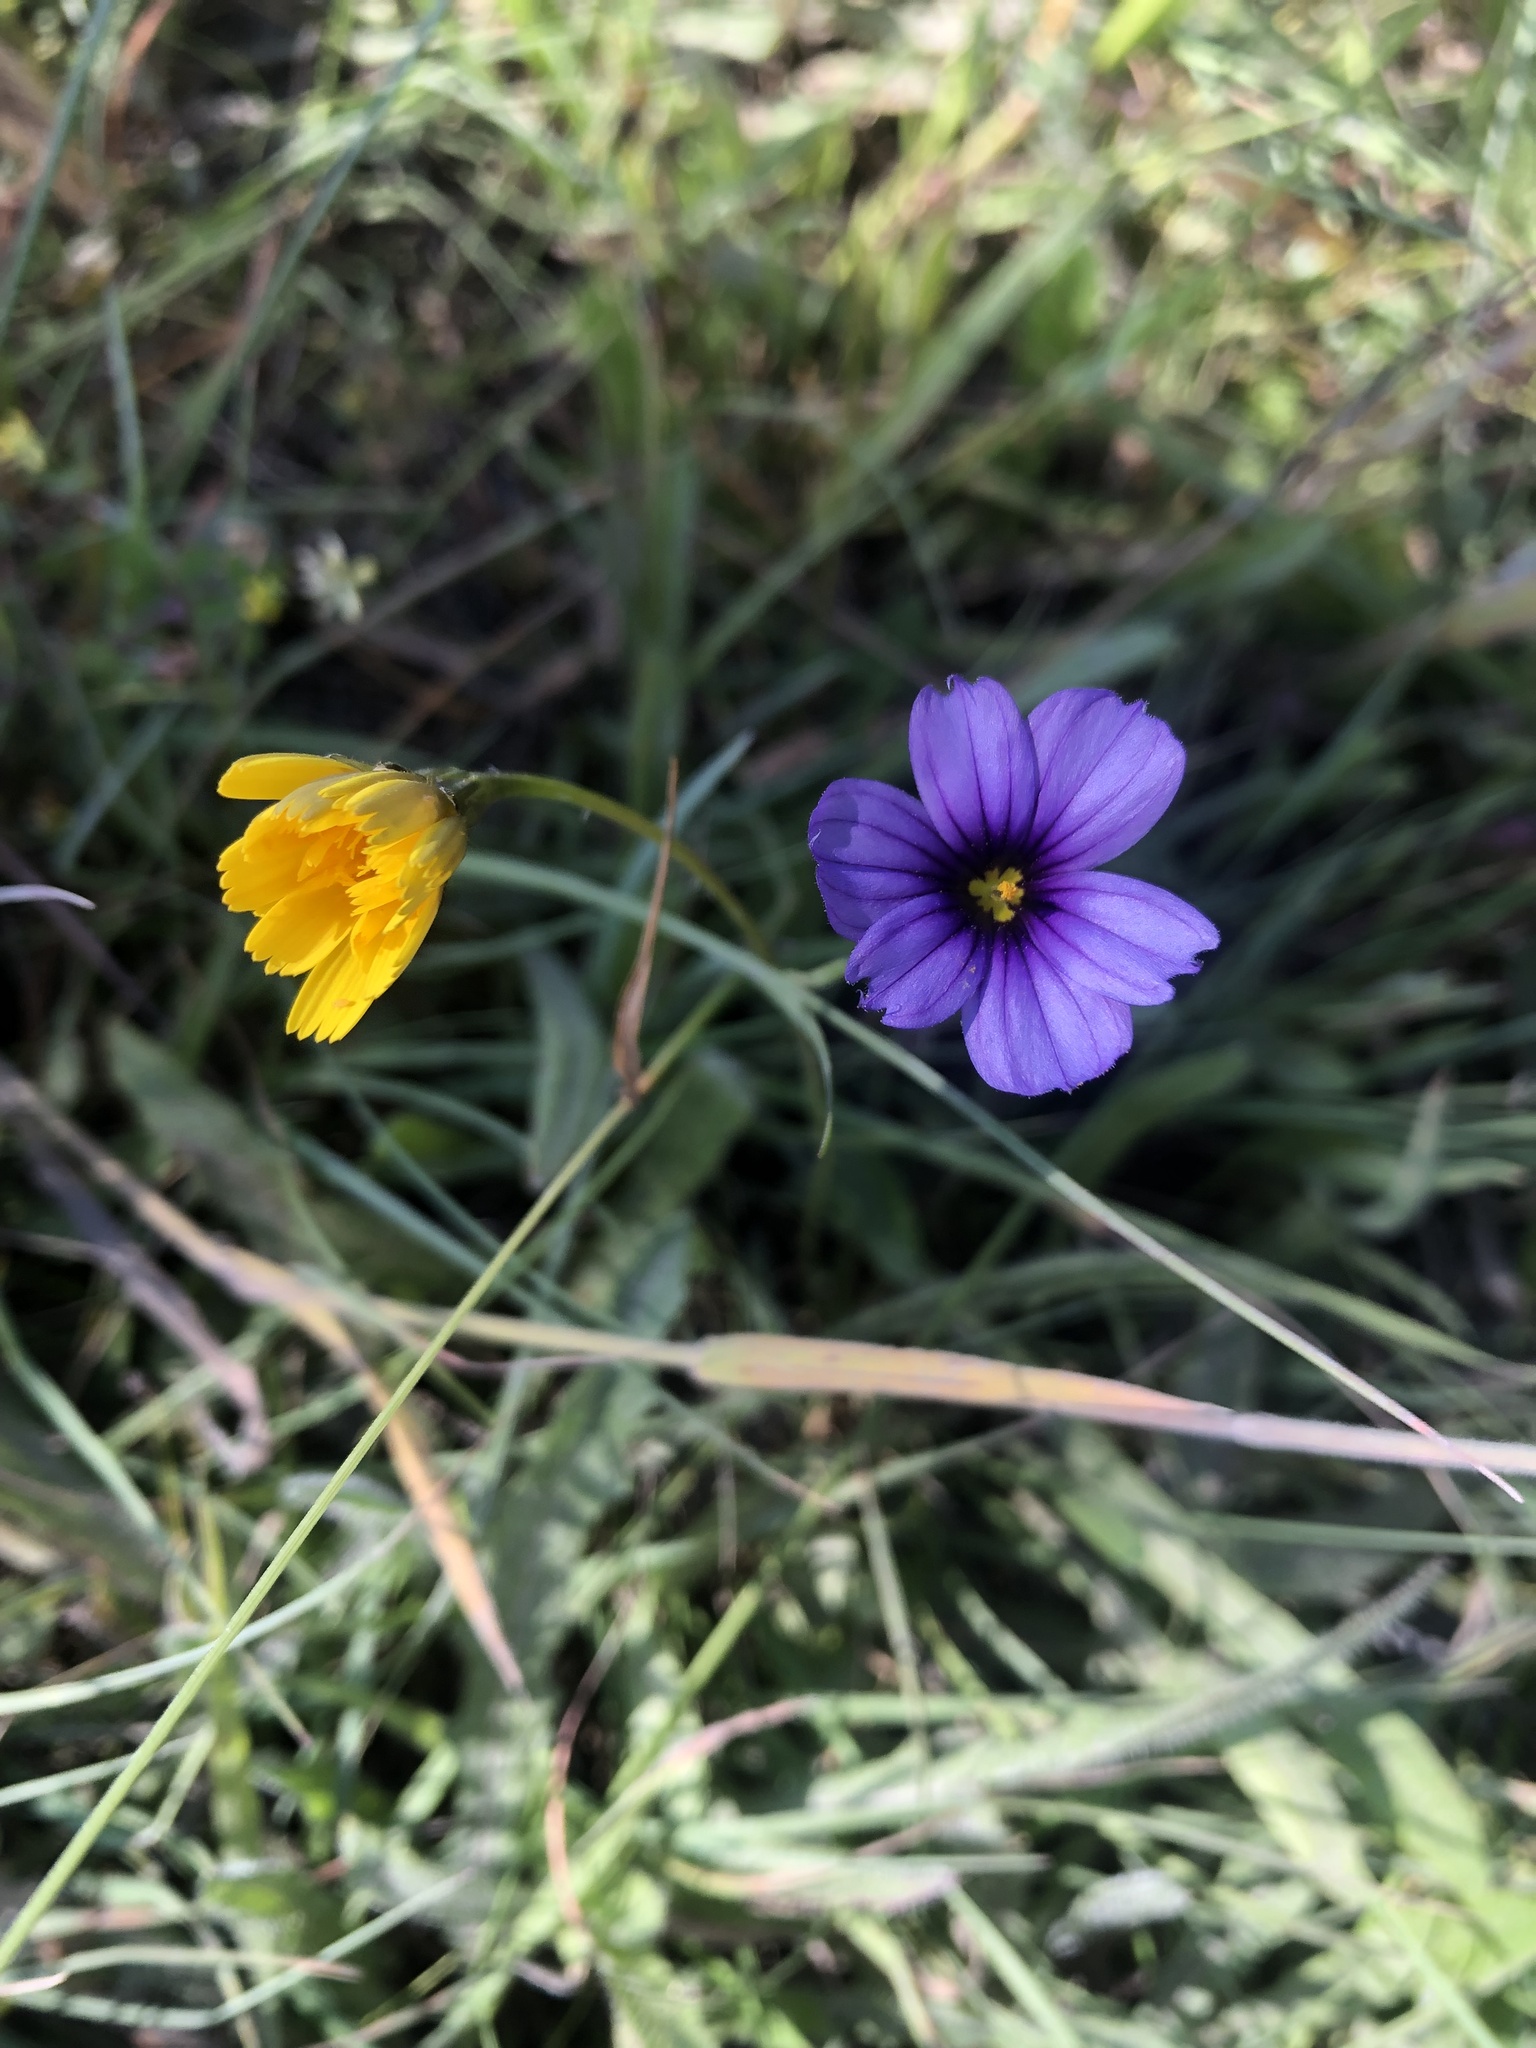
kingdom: Plantae
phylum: Tracheophyta
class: Liliopsida
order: Asparagales
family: Iridaceae
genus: Sisyrinchium
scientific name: Sisyrinchium bellum
